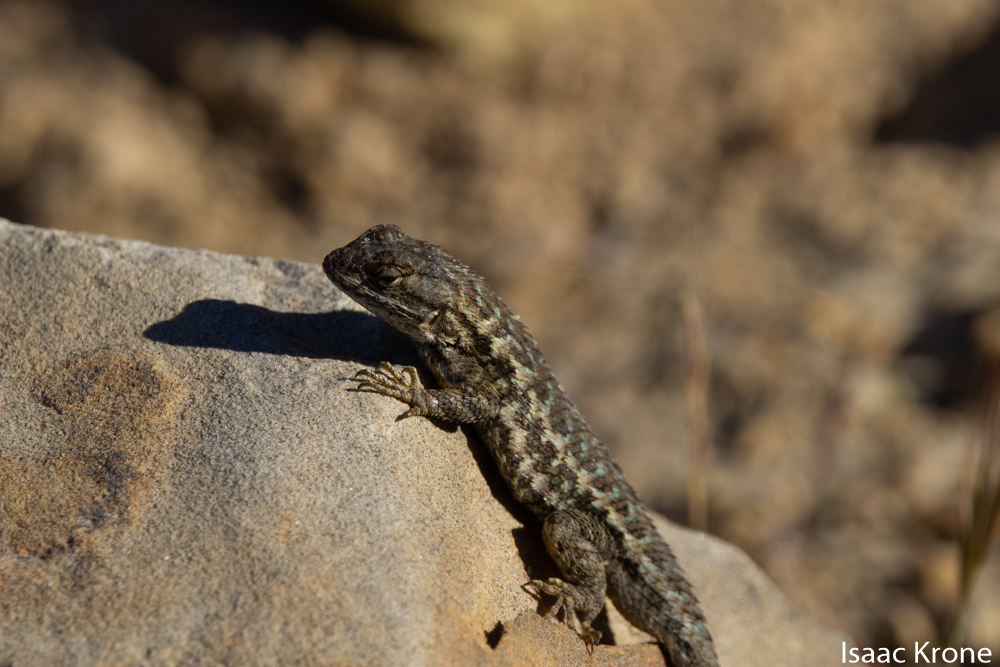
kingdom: Animalia
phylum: Chordata
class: Squamata
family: Phrynosomatidae
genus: Sceloporus
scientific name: Sceloporus occidentalis
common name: Western fence lizard
